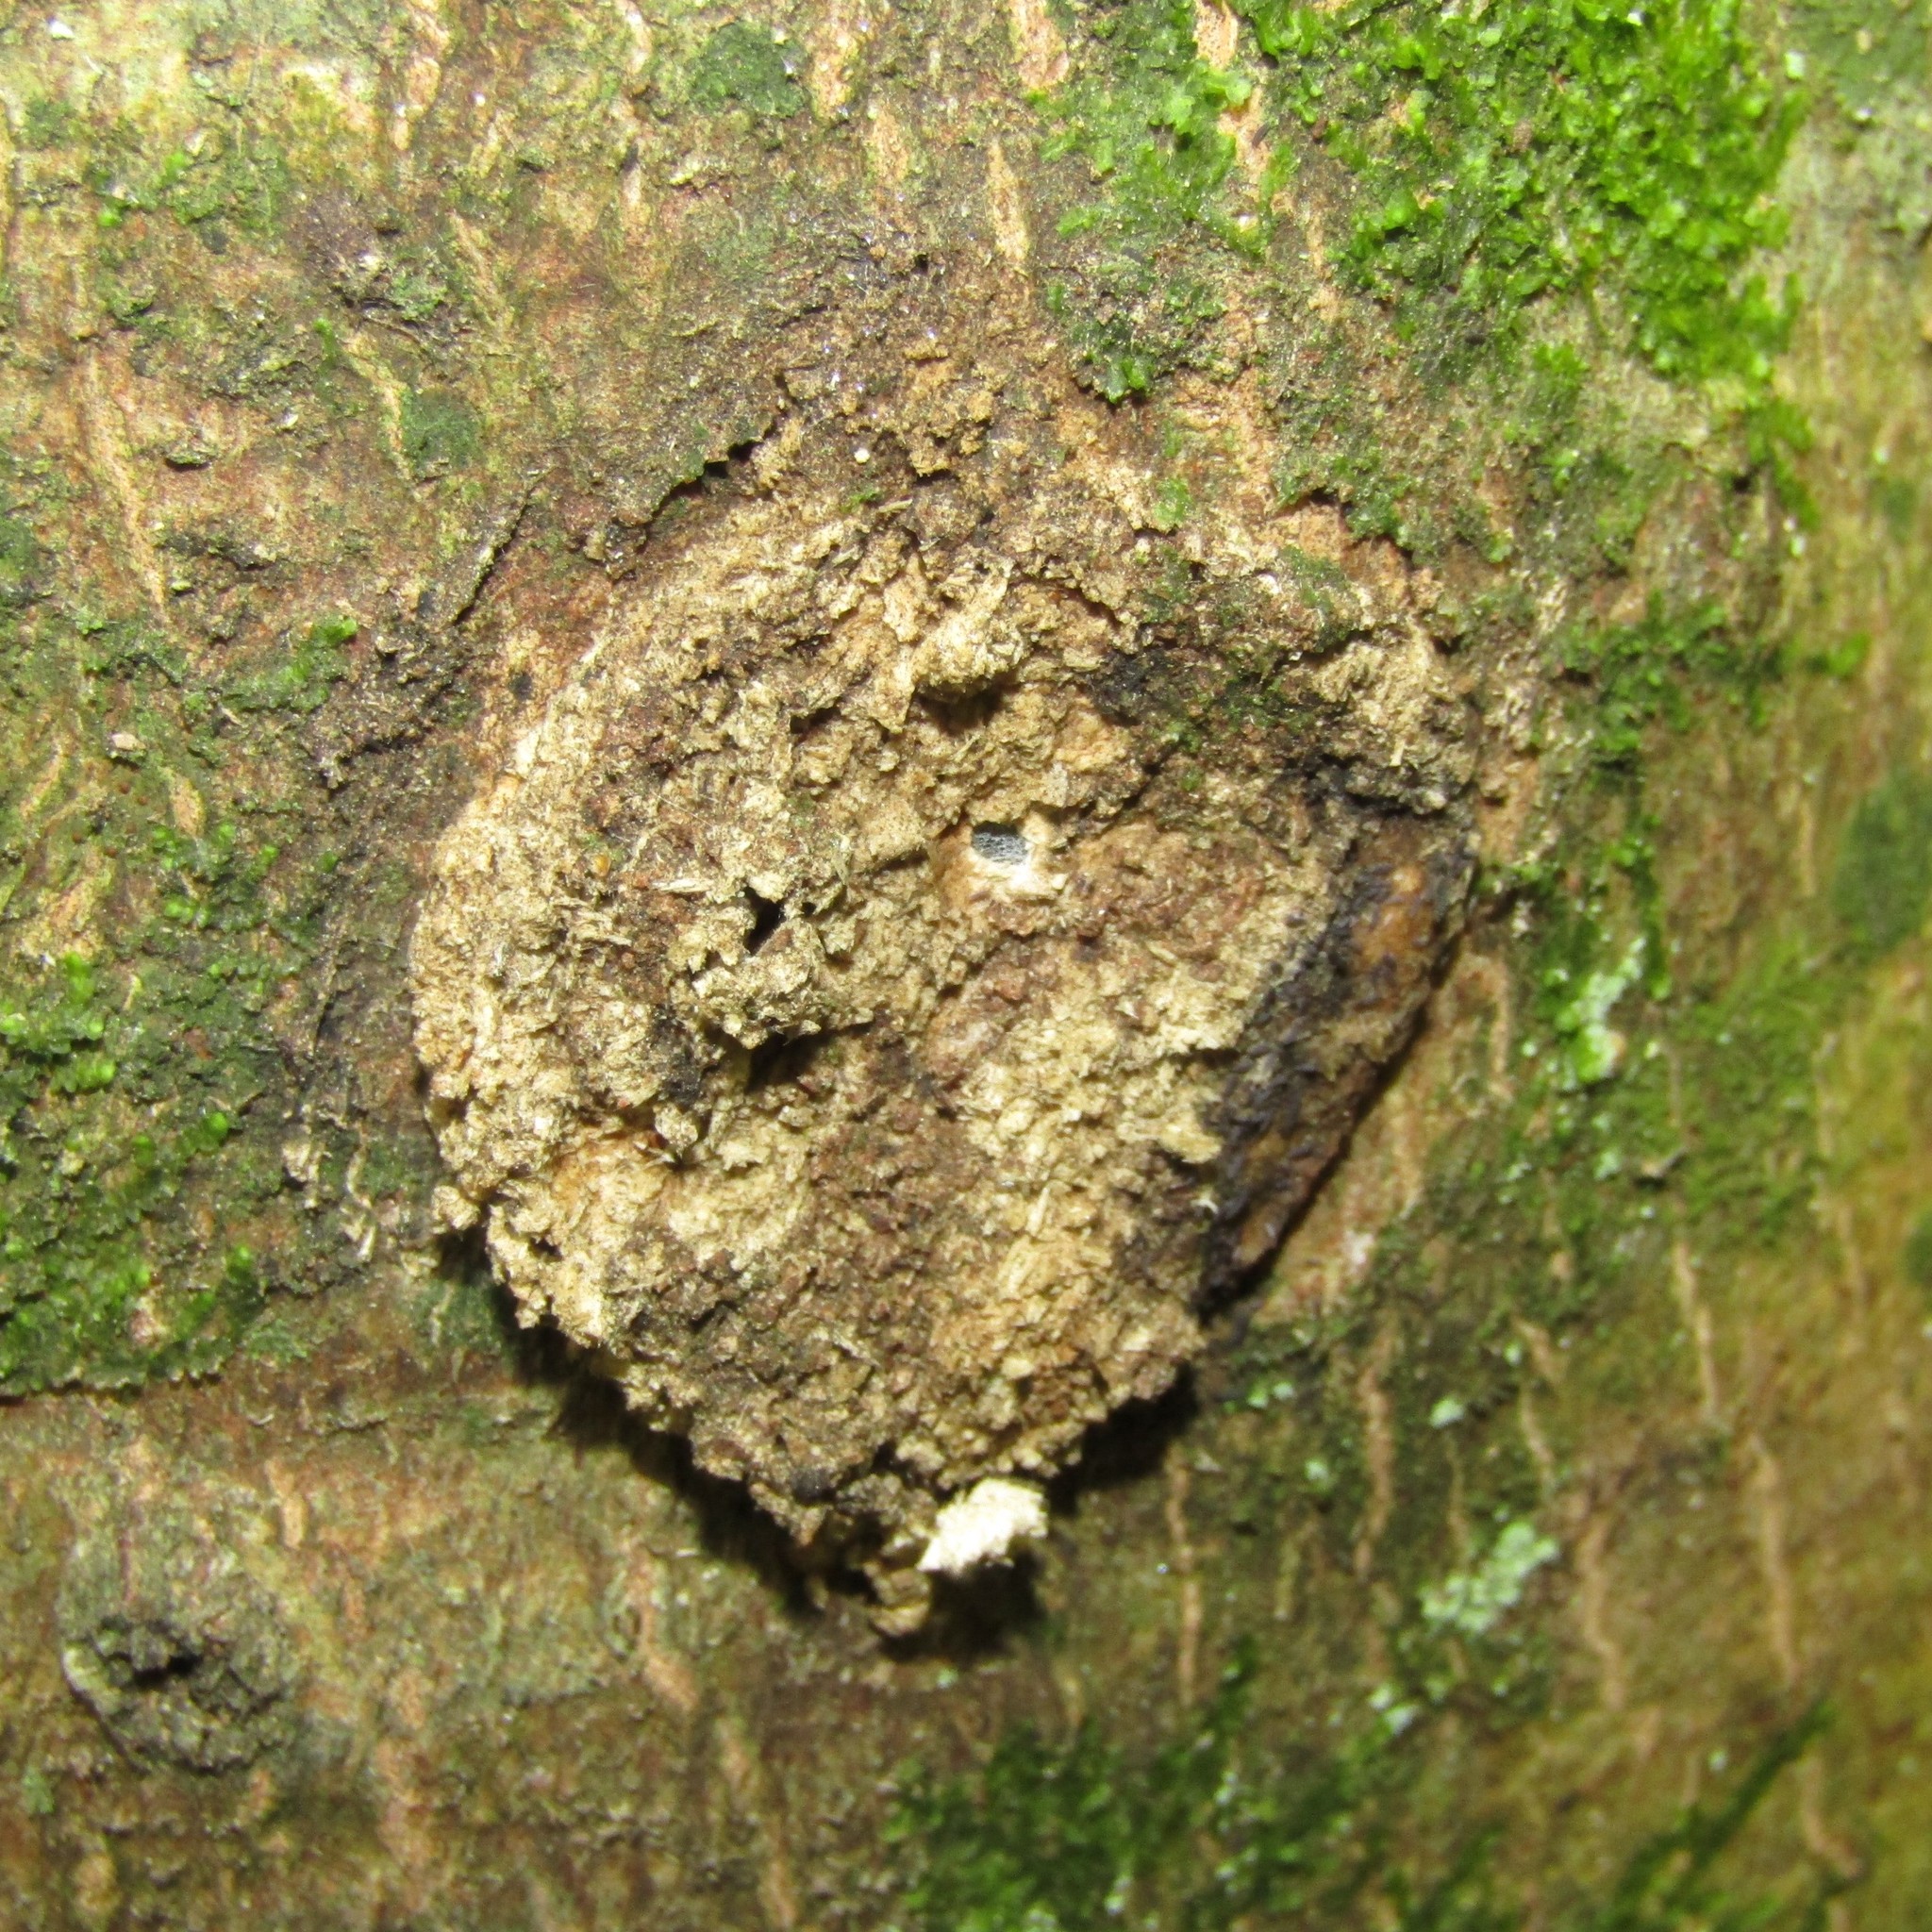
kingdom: Animalia
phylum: Arthropoda
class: Insecta
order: Lepidoptera
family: Hepialidae
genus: Aenetus
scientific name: Aenetus virescens
